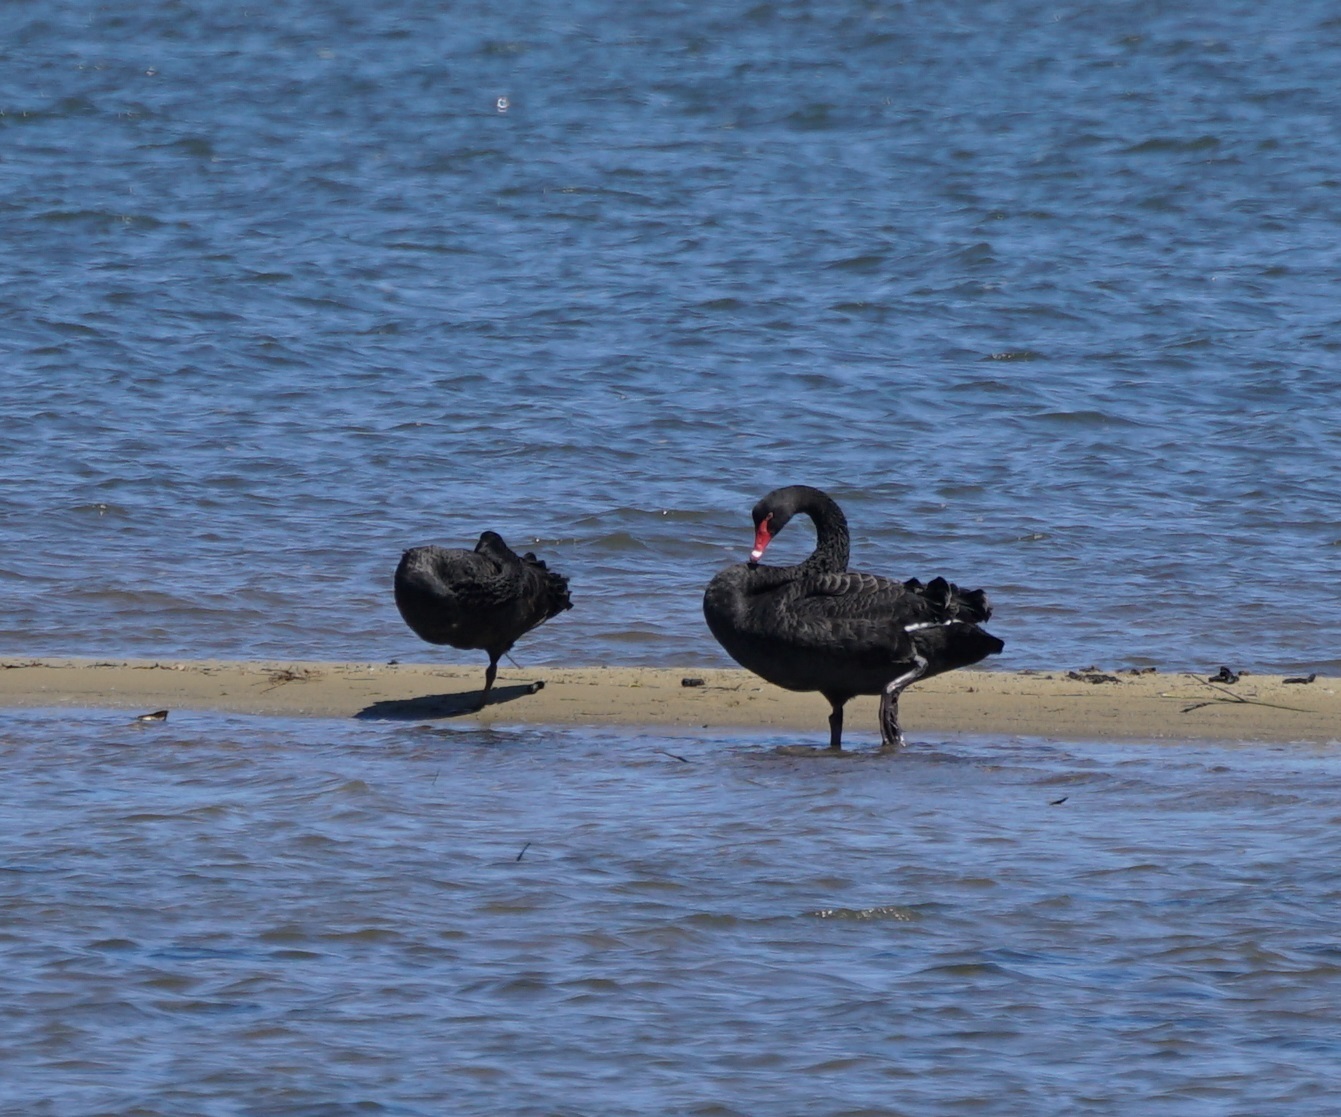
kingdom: Animalia
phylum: Chordata
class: Aves
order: Anseriformes
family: Anatidae
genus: Cygnus
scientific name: Cygnus atratus
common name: Black swan
